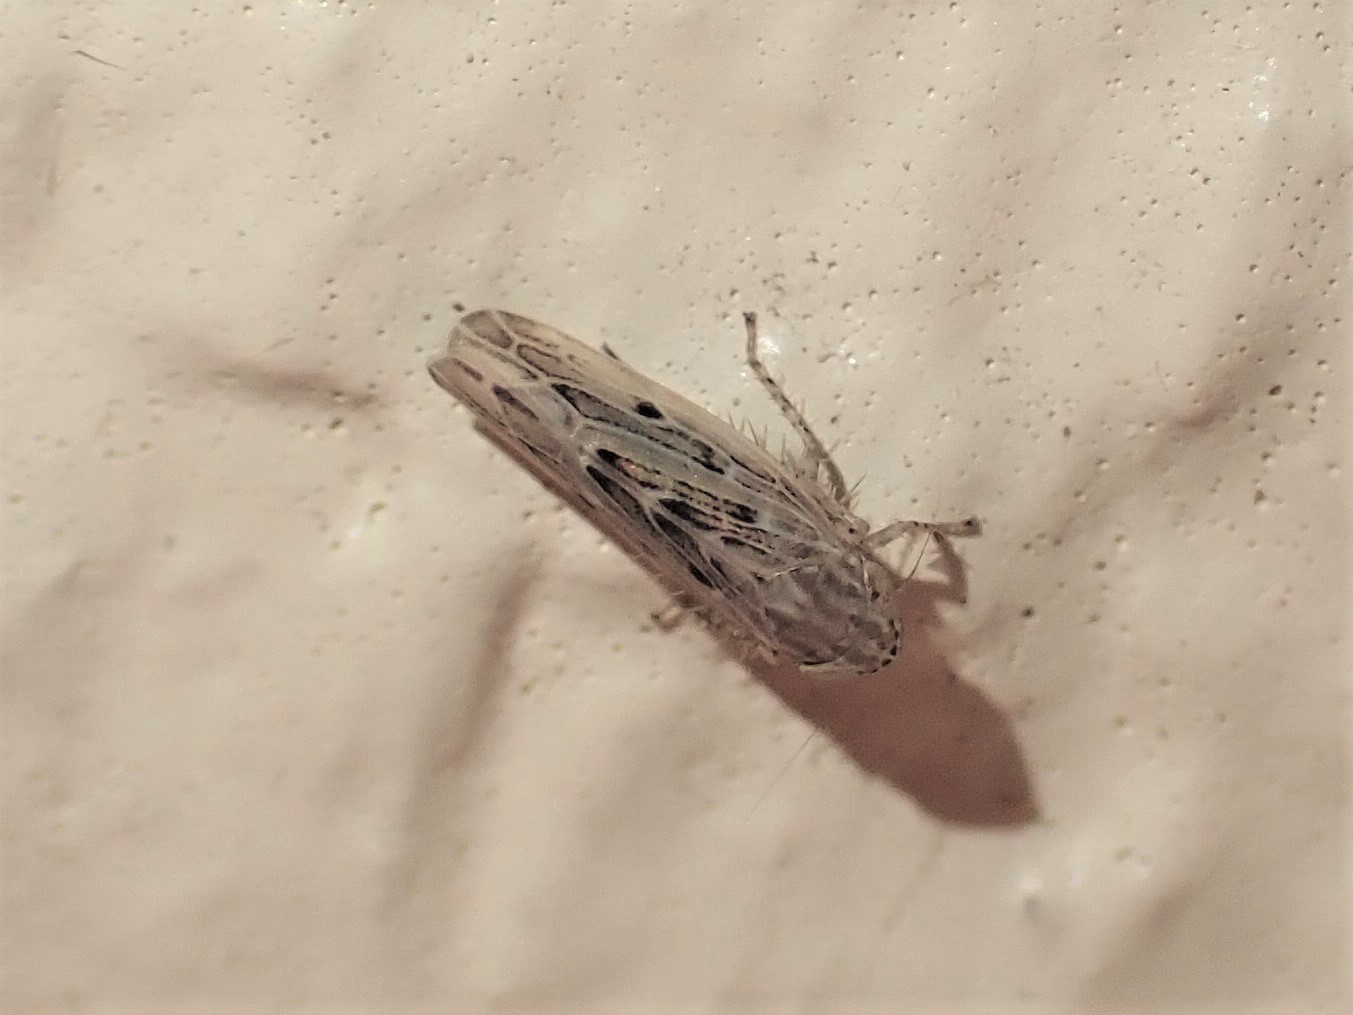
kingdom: Animalia
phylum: Arthropoda
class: Insecta
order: Hemiptera
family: Cicadellidae
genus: Maiestas
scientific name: Maiestas vetus
